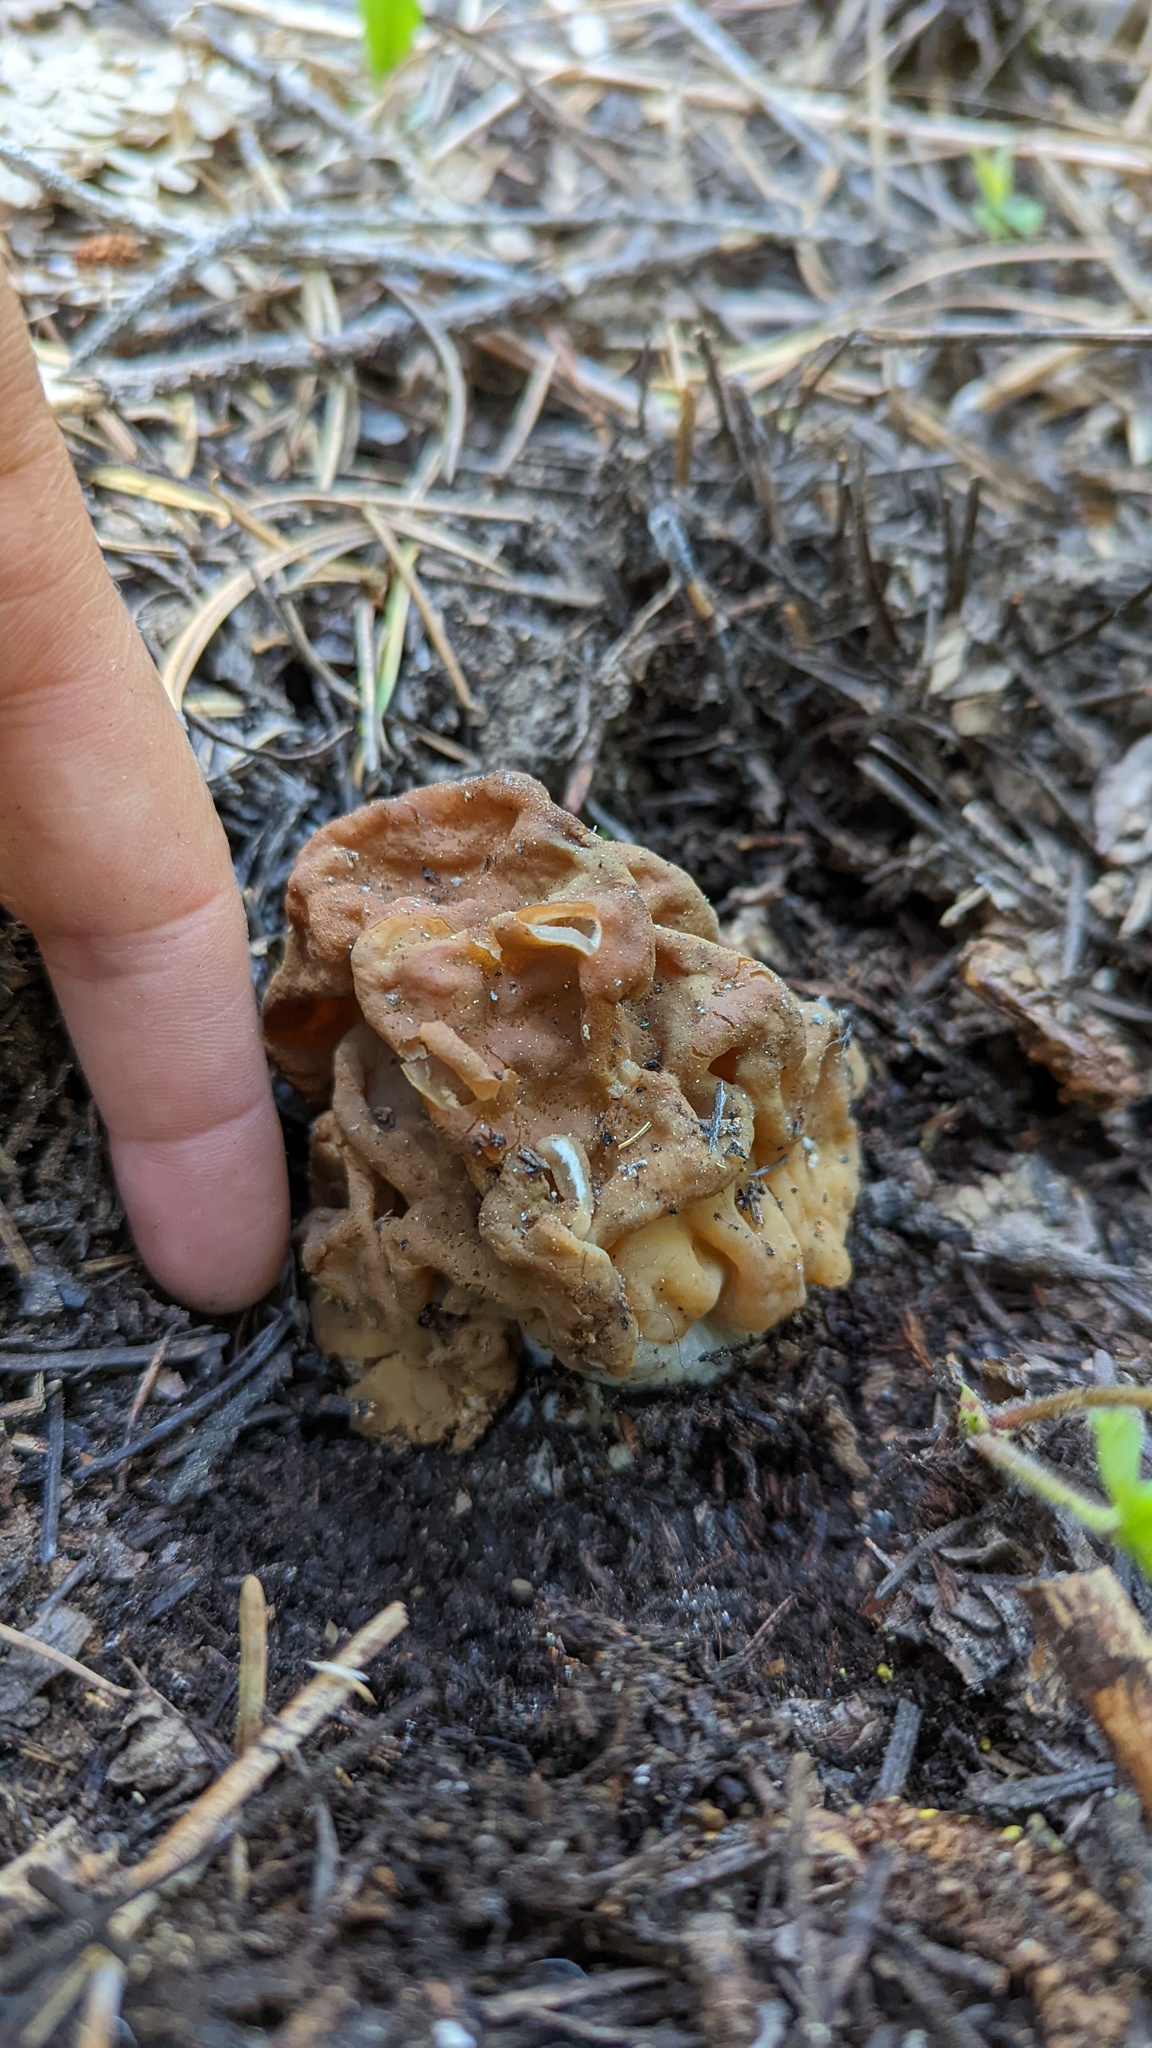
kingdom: Fungi
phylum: Ascomycota
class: Pezizomycetes
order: Pezizales
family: Discinaceae
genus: Discina
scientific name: Discina montana
